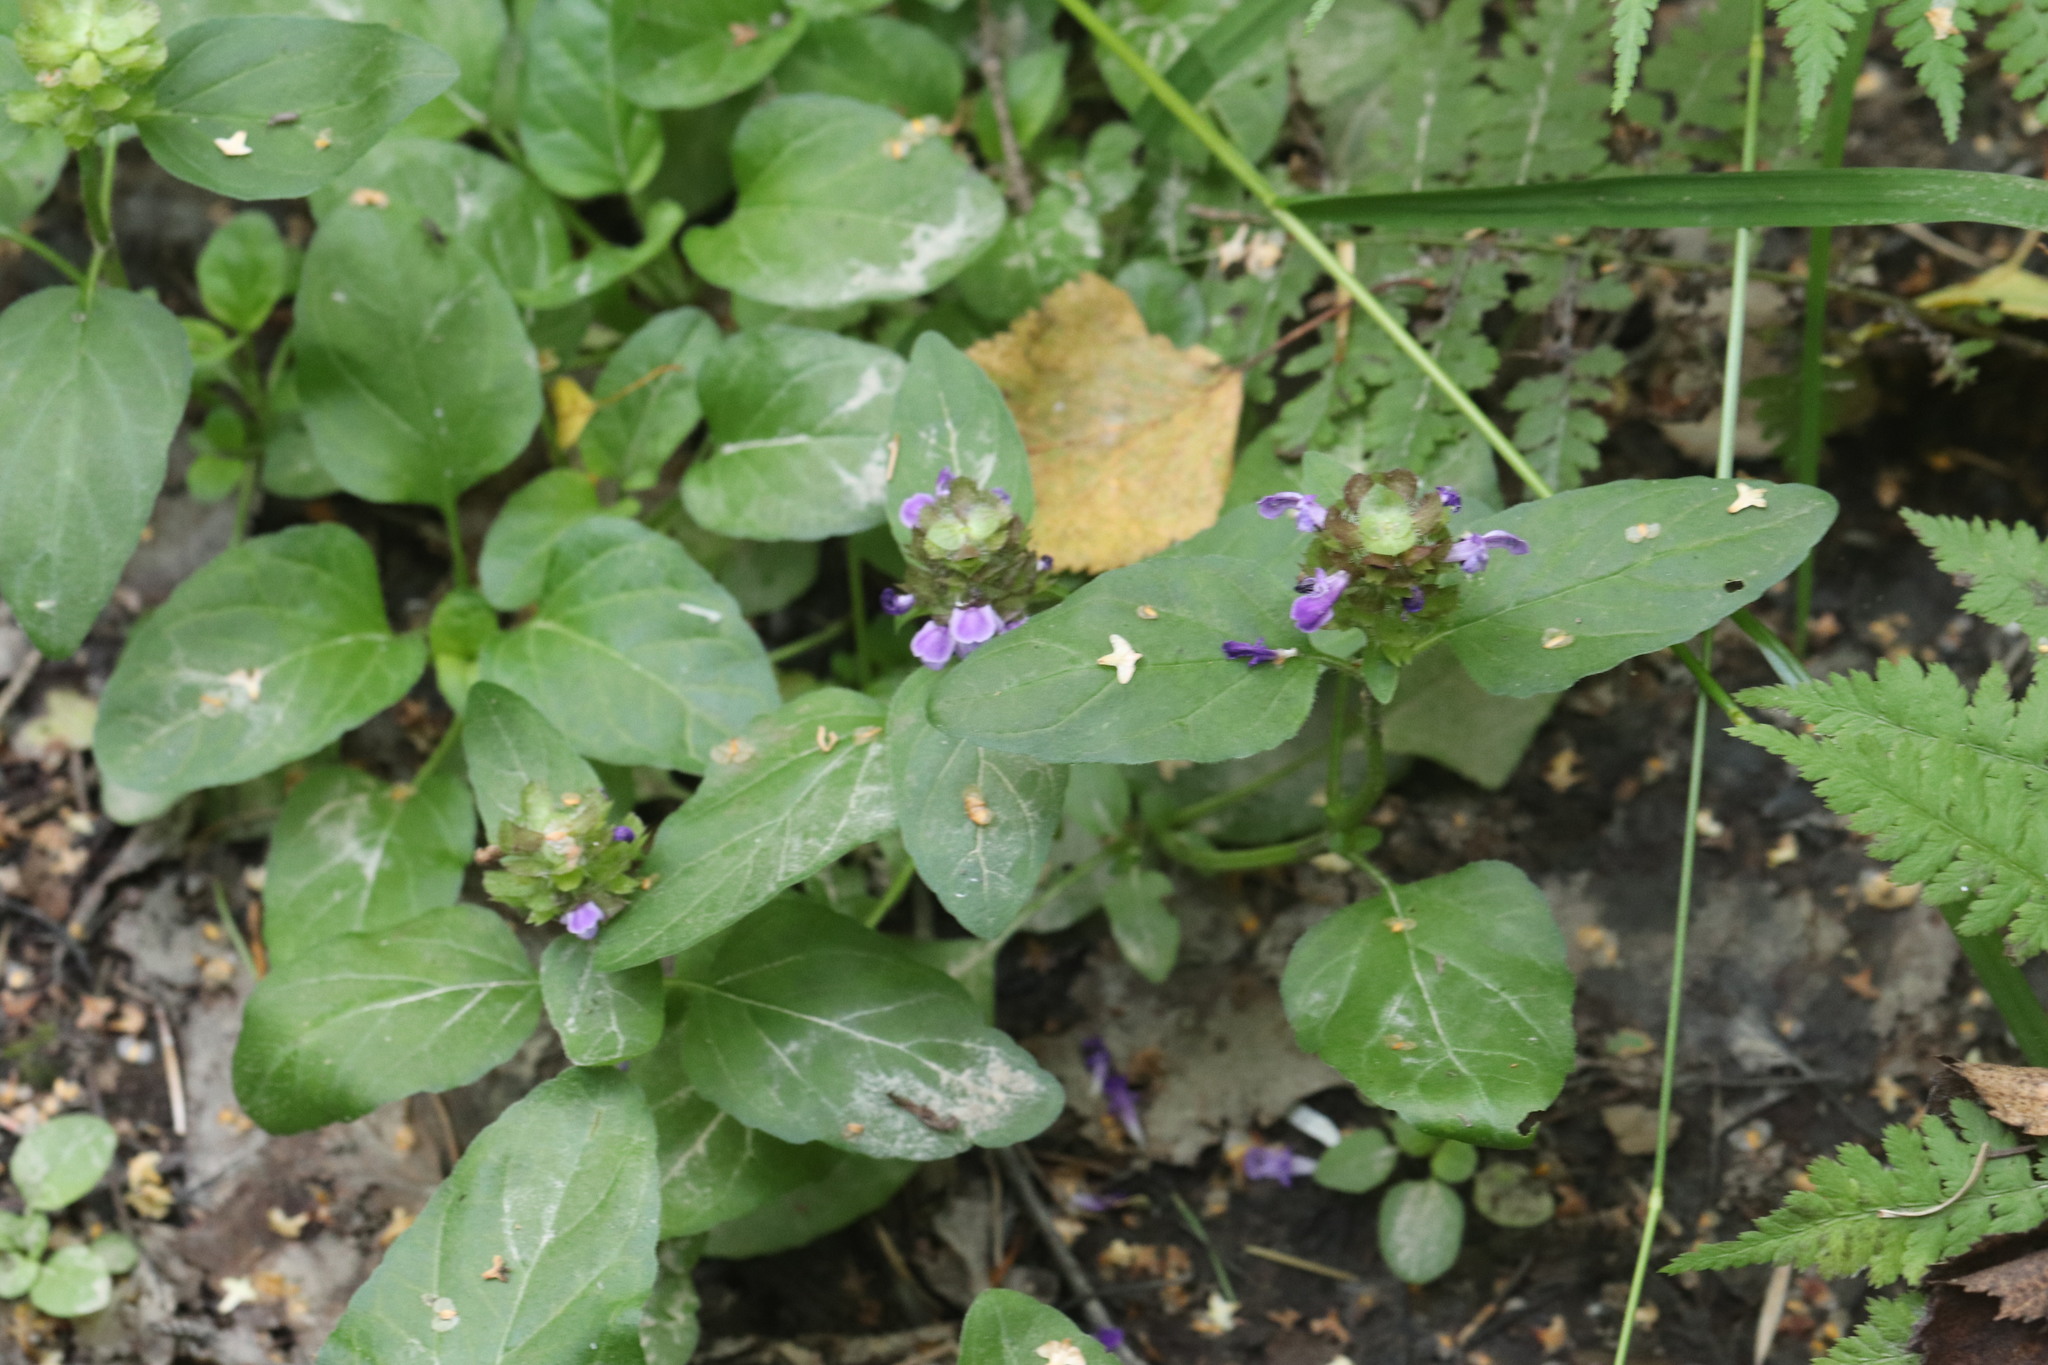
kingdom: Plantae
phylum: Tracheophyta
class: Magnoliopsida
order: Lamiales
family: Lamiaceae
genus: Prunella
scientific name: Prunella vulgaris
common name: Heal-all
